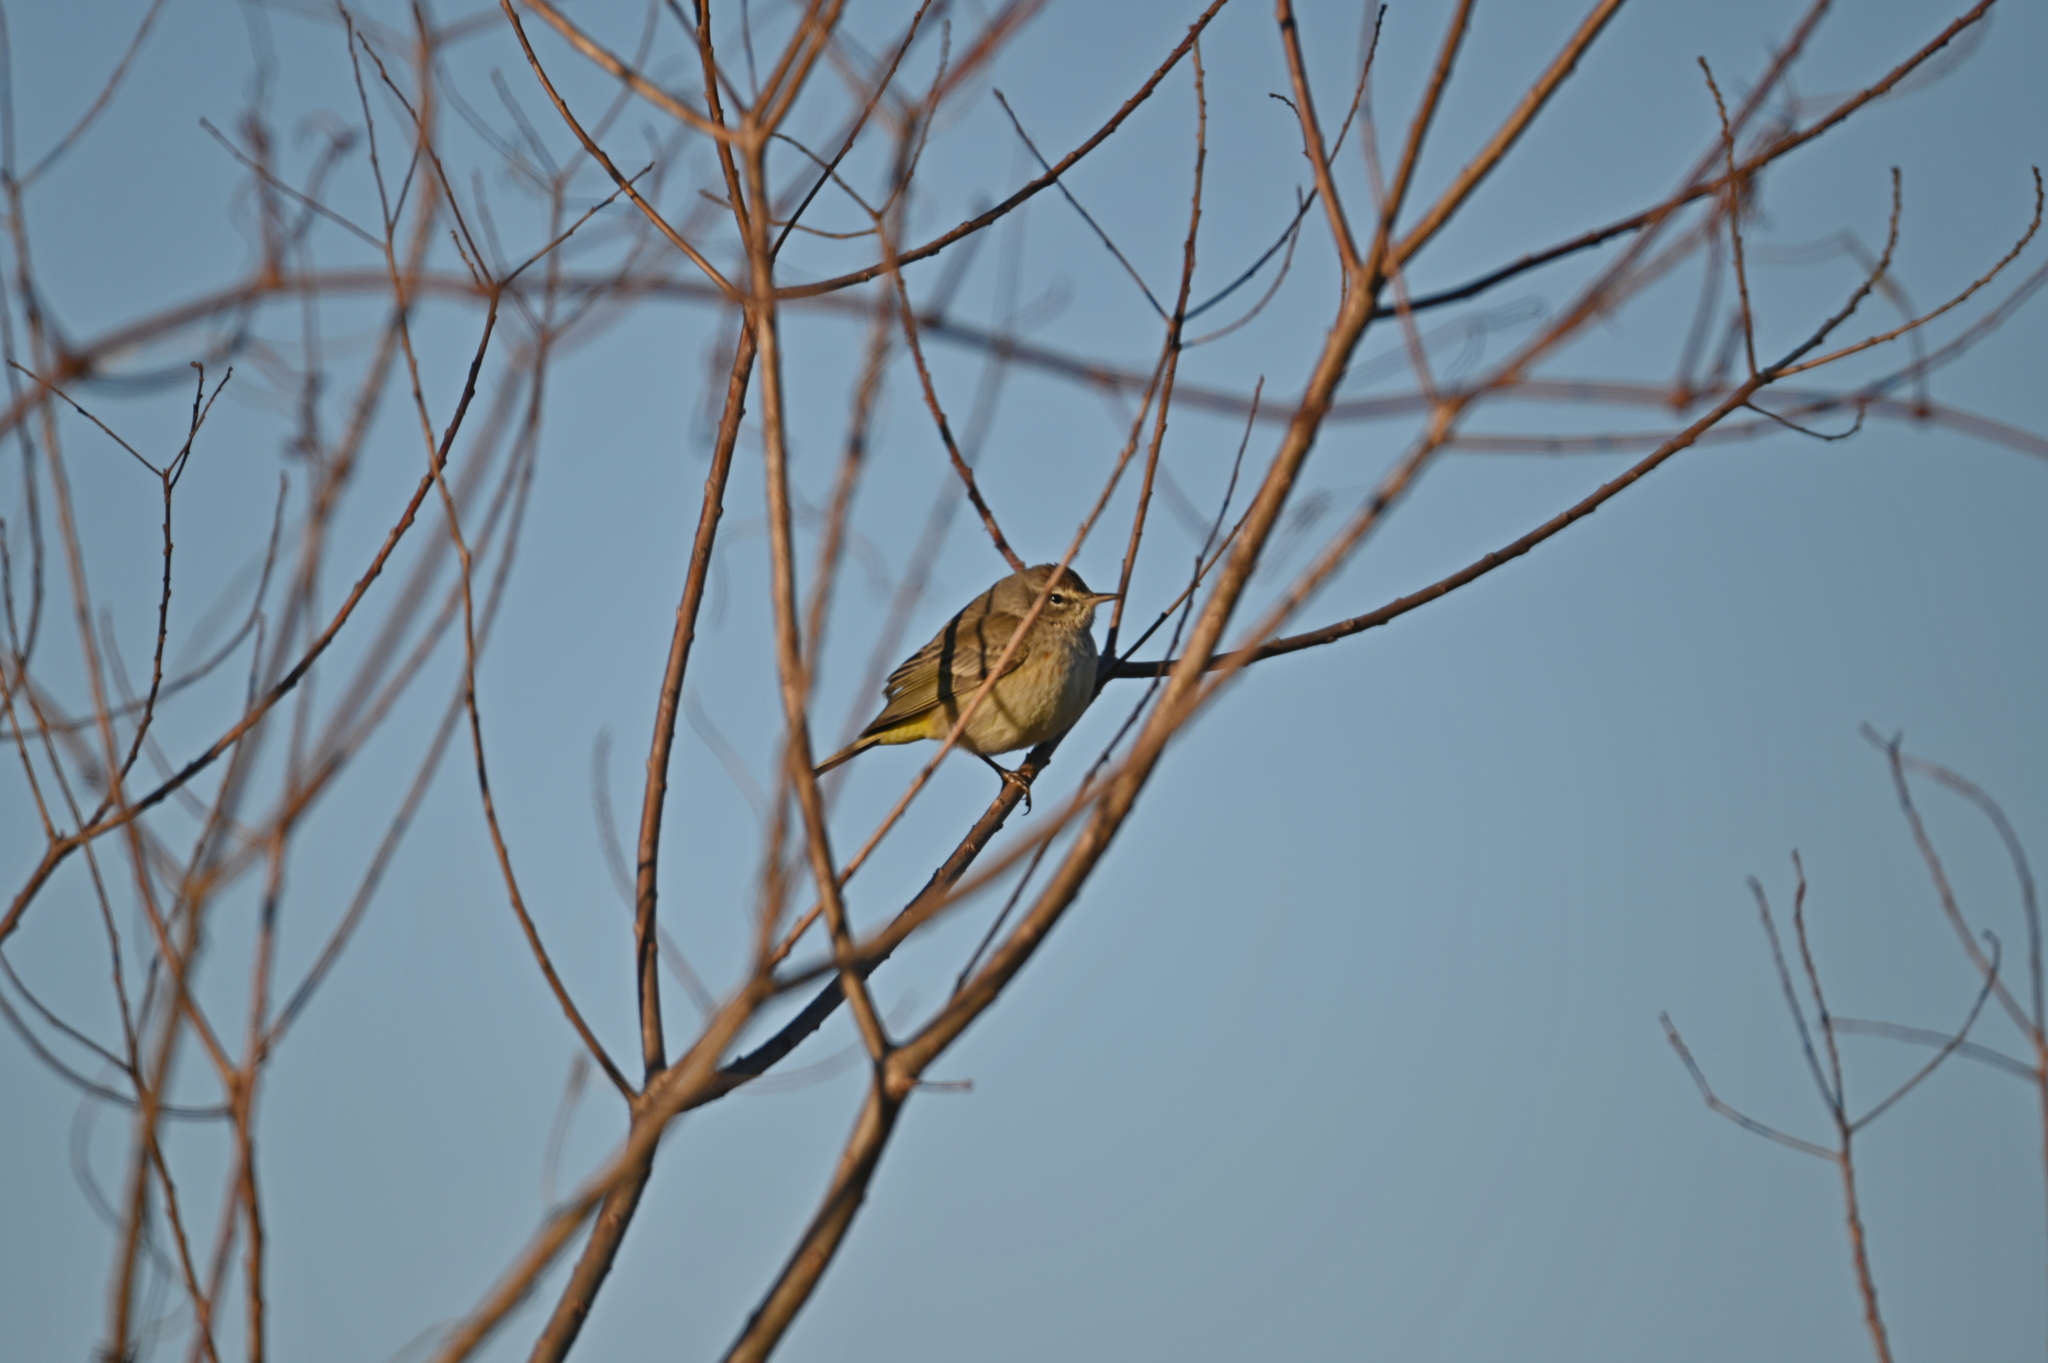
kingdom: Animalia
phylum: Chordata
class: Aves
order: Passeriformes
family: Parulidae
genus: Setophaga
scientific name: Setophaga palmarum
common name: Palm warbler
